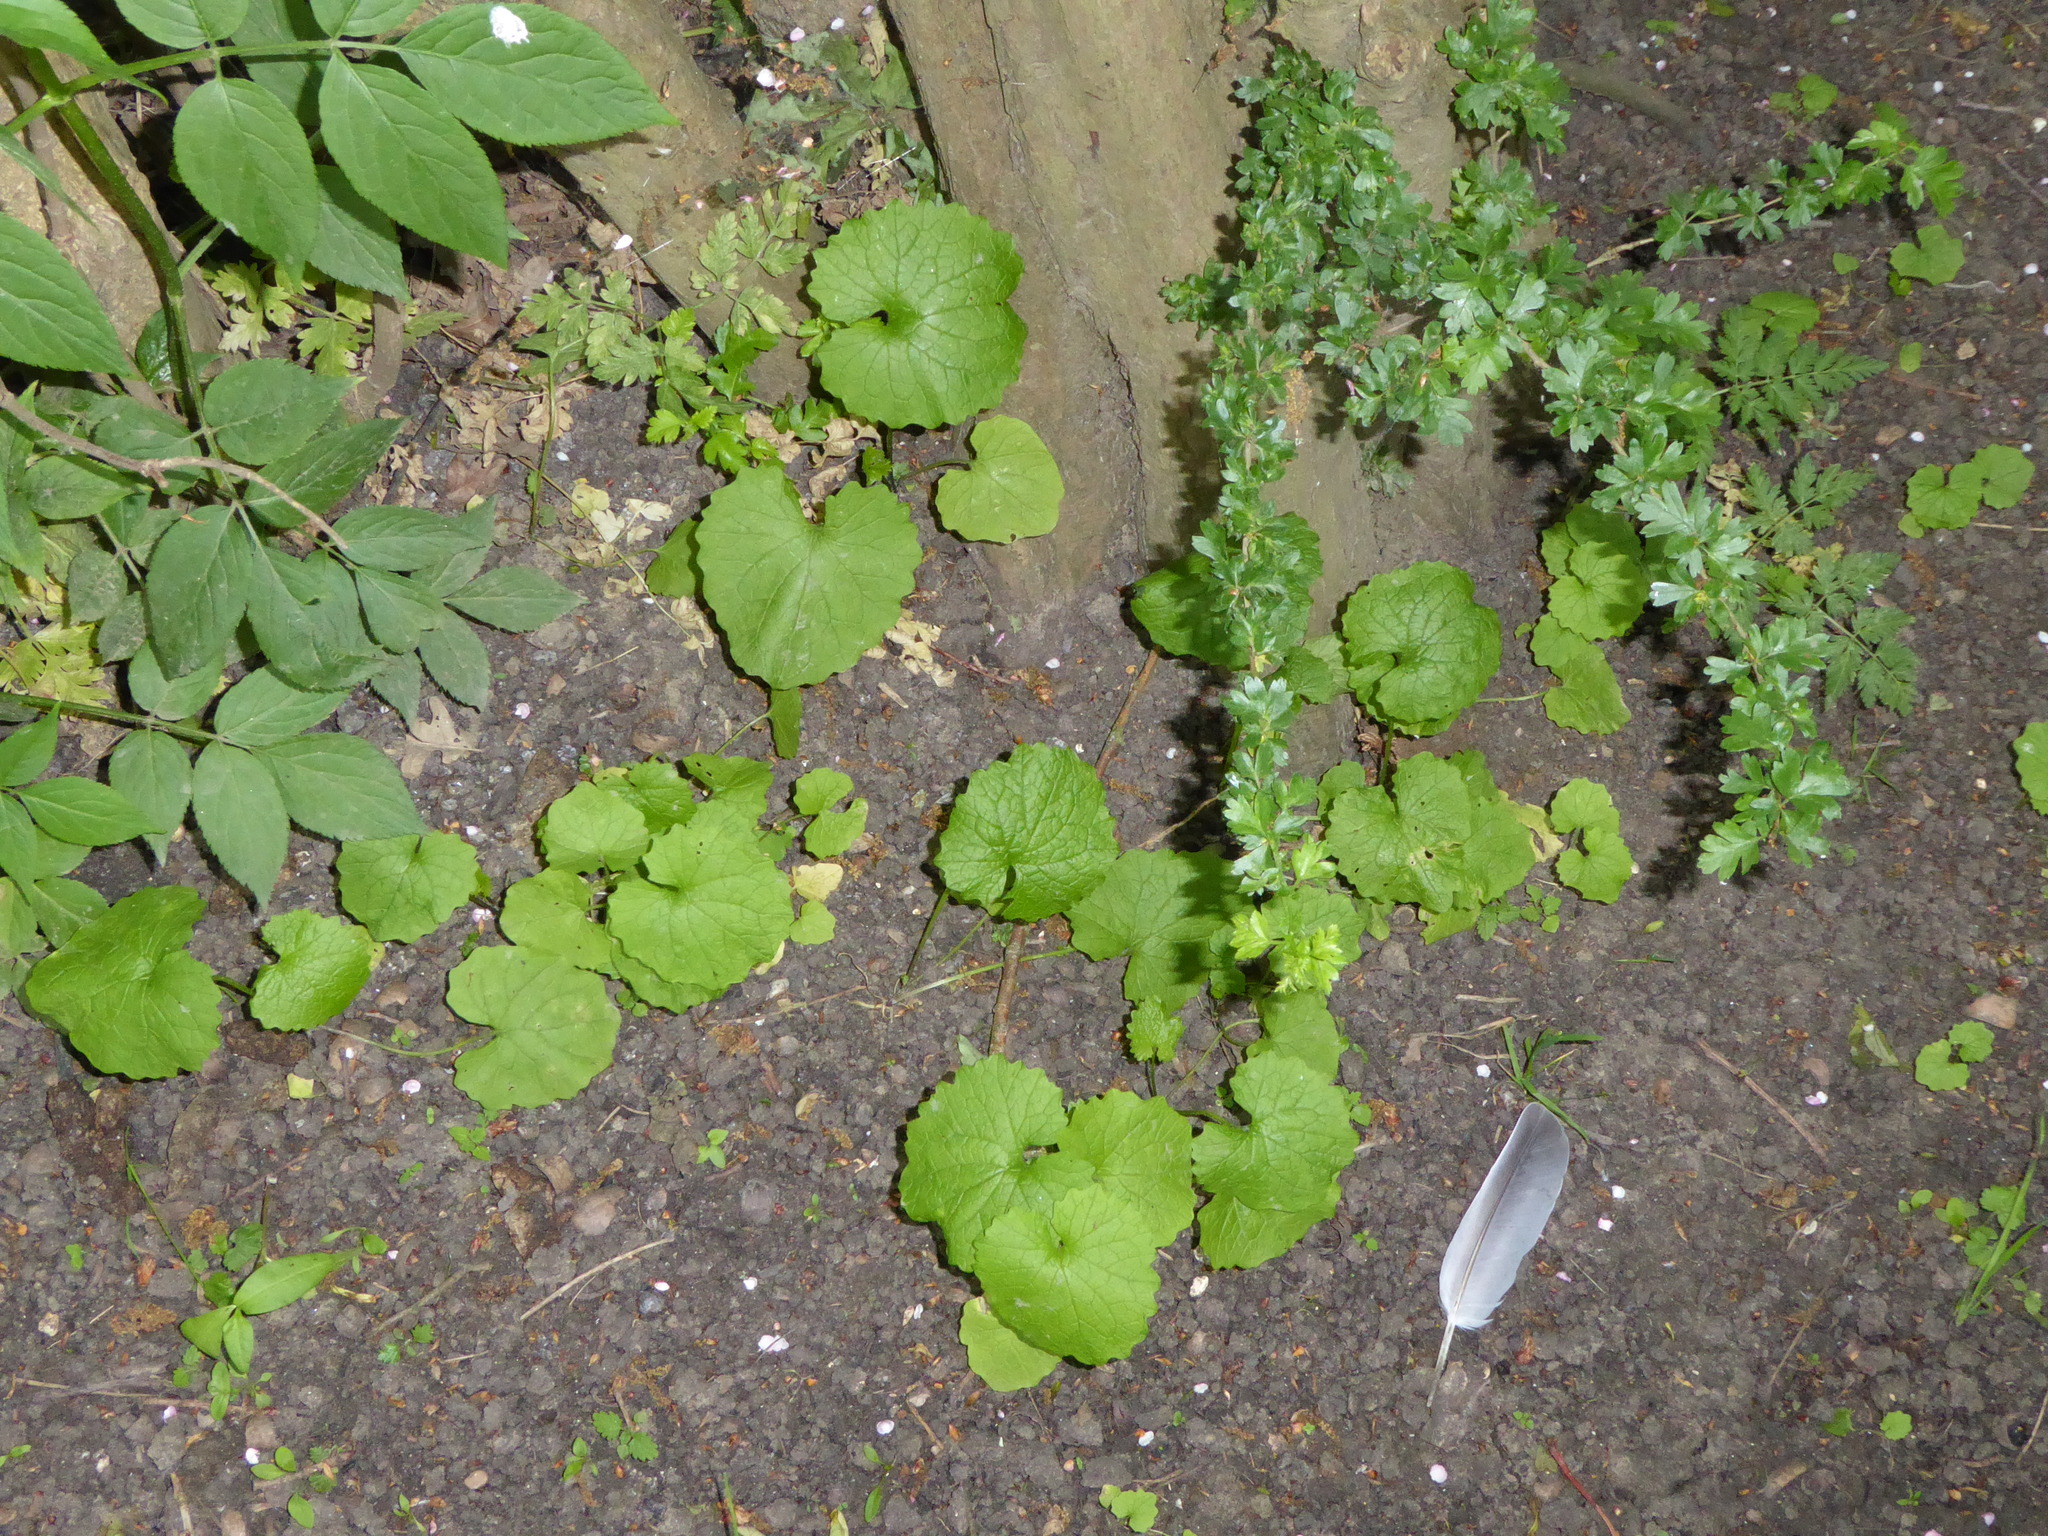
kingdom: Plantae
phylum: Tracheophyta
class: Magnoliopsida
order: Brassicales
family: Brassicaceae
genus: Alliaria
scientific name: Alliaria petiolata
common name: Garlic mustard
